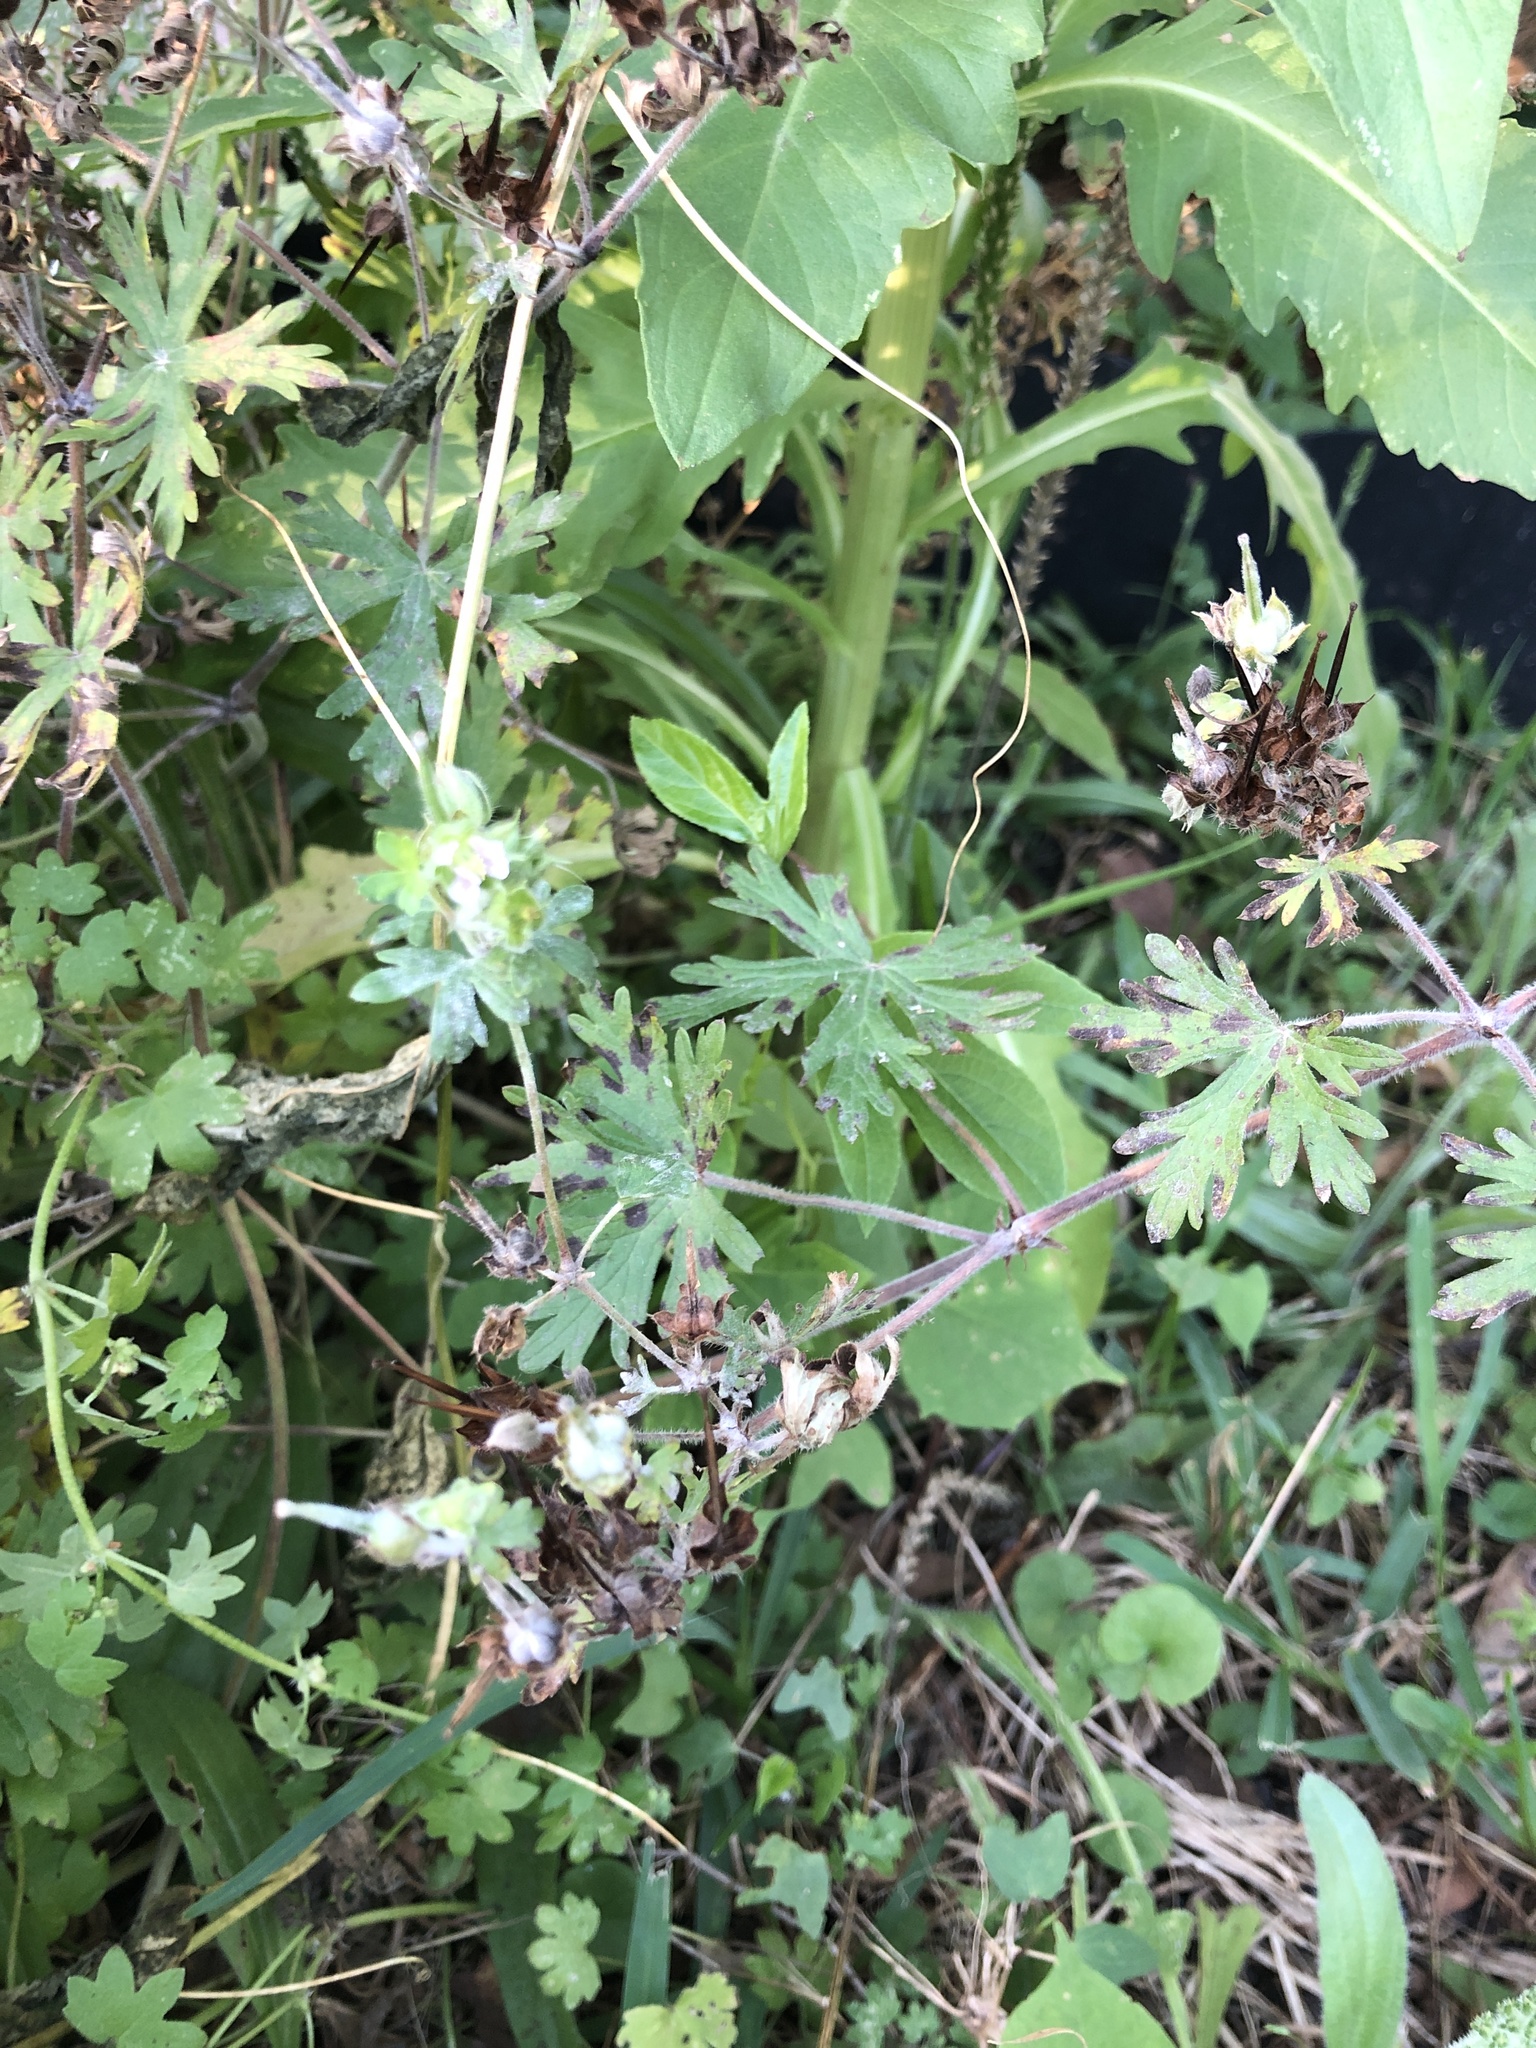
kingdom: Plantae
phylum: Tracheophyta
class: Magnoliopsida
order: Geraniales
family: Geraniaceae
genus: Geranium
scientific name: Geranium carolinianum
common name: Carolina crane's-bill
